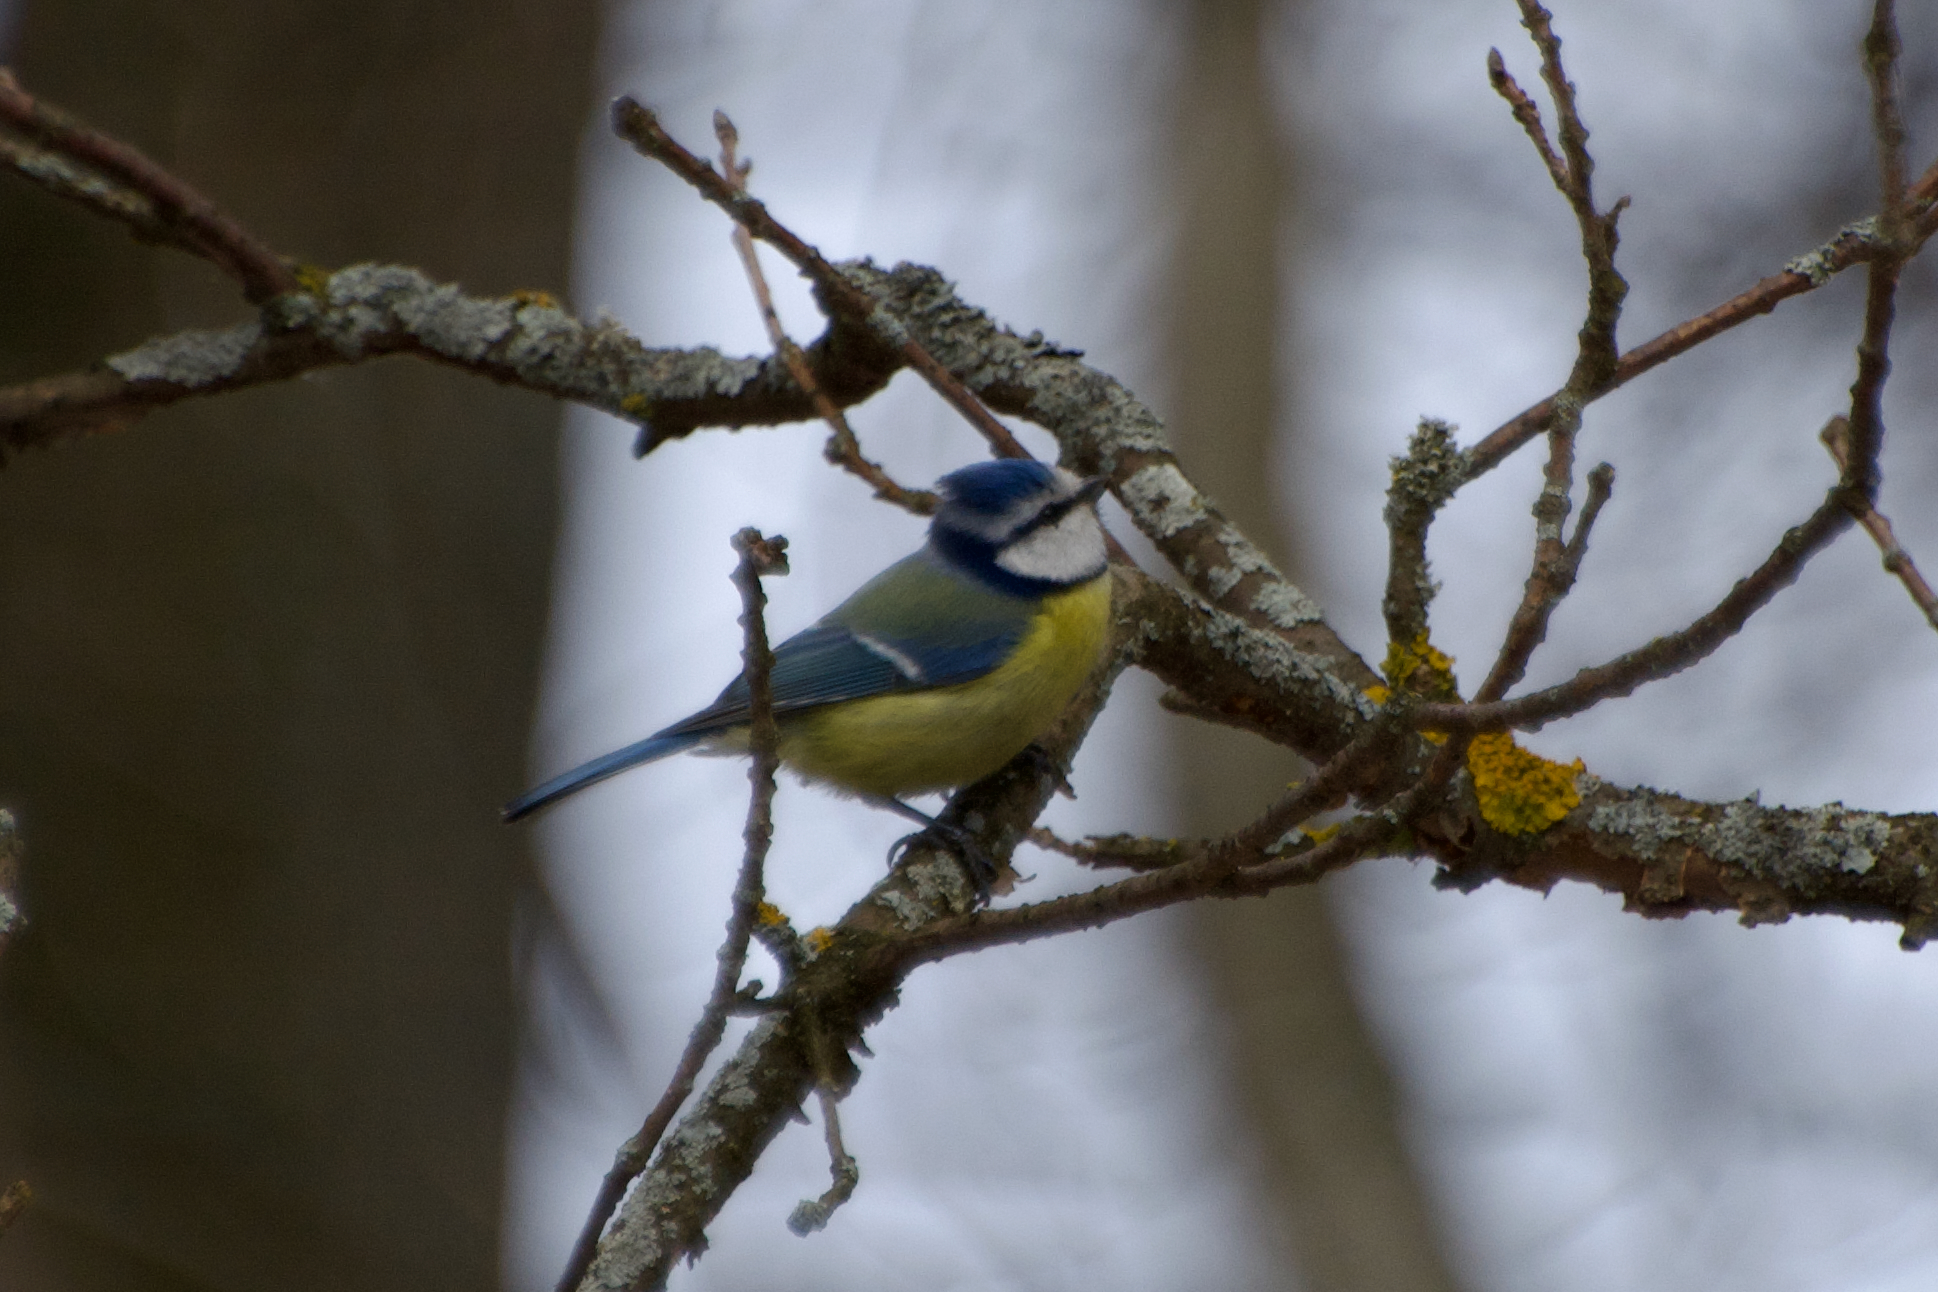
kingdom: Animalia
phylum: Chordata
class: Aves
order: Passeriformes
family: Paridae
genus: Cyanistes
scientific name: Cyanistes caeruleus
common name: Eurasian blue tit
